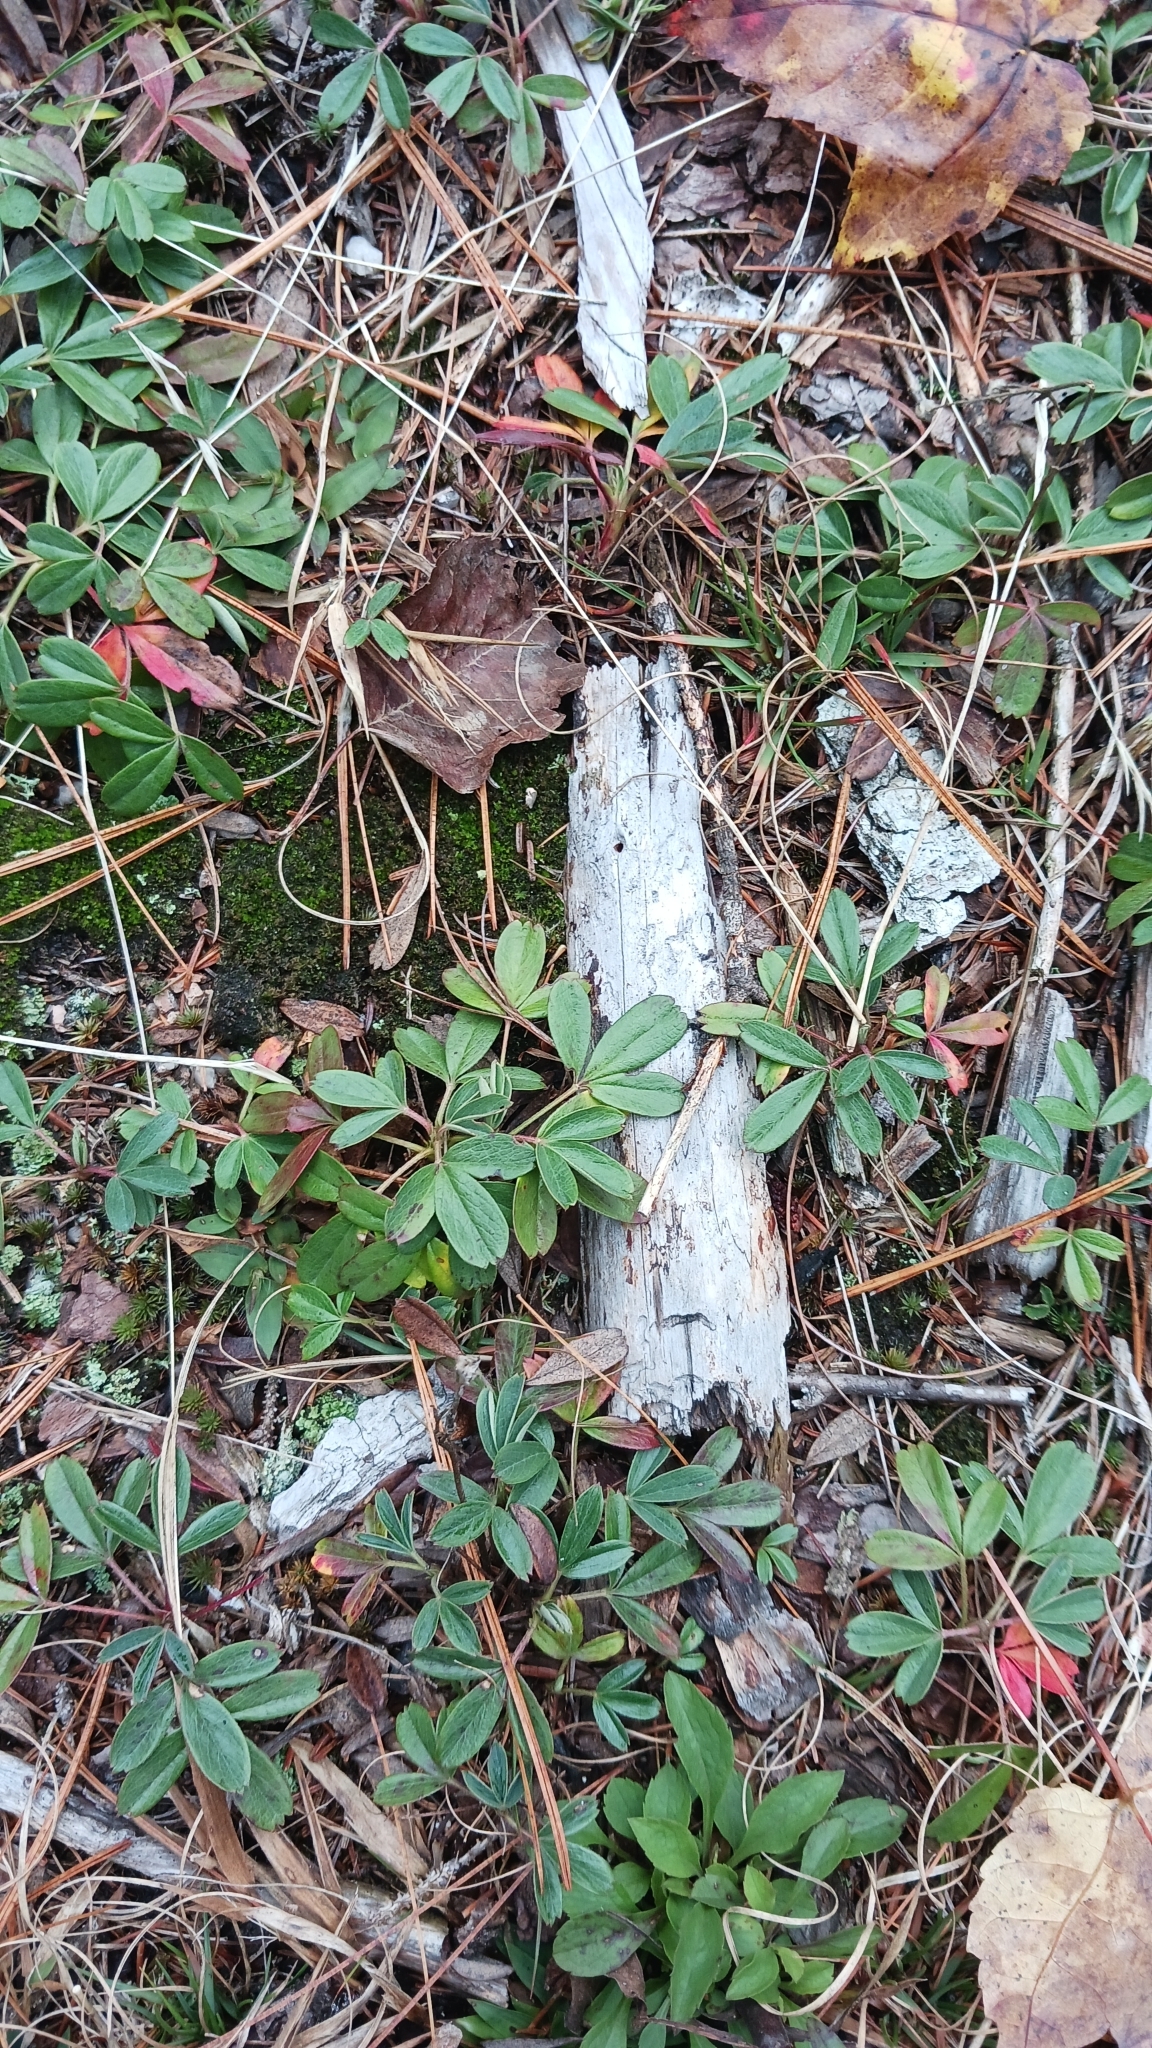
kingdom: Plantae
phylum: Tracheophyta
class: Magnoliopsida
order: Rosales
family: Rosaceae
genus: Sibbaldia
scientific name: Sibbaldia tridentata
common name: Three-toothed cinquefoil
